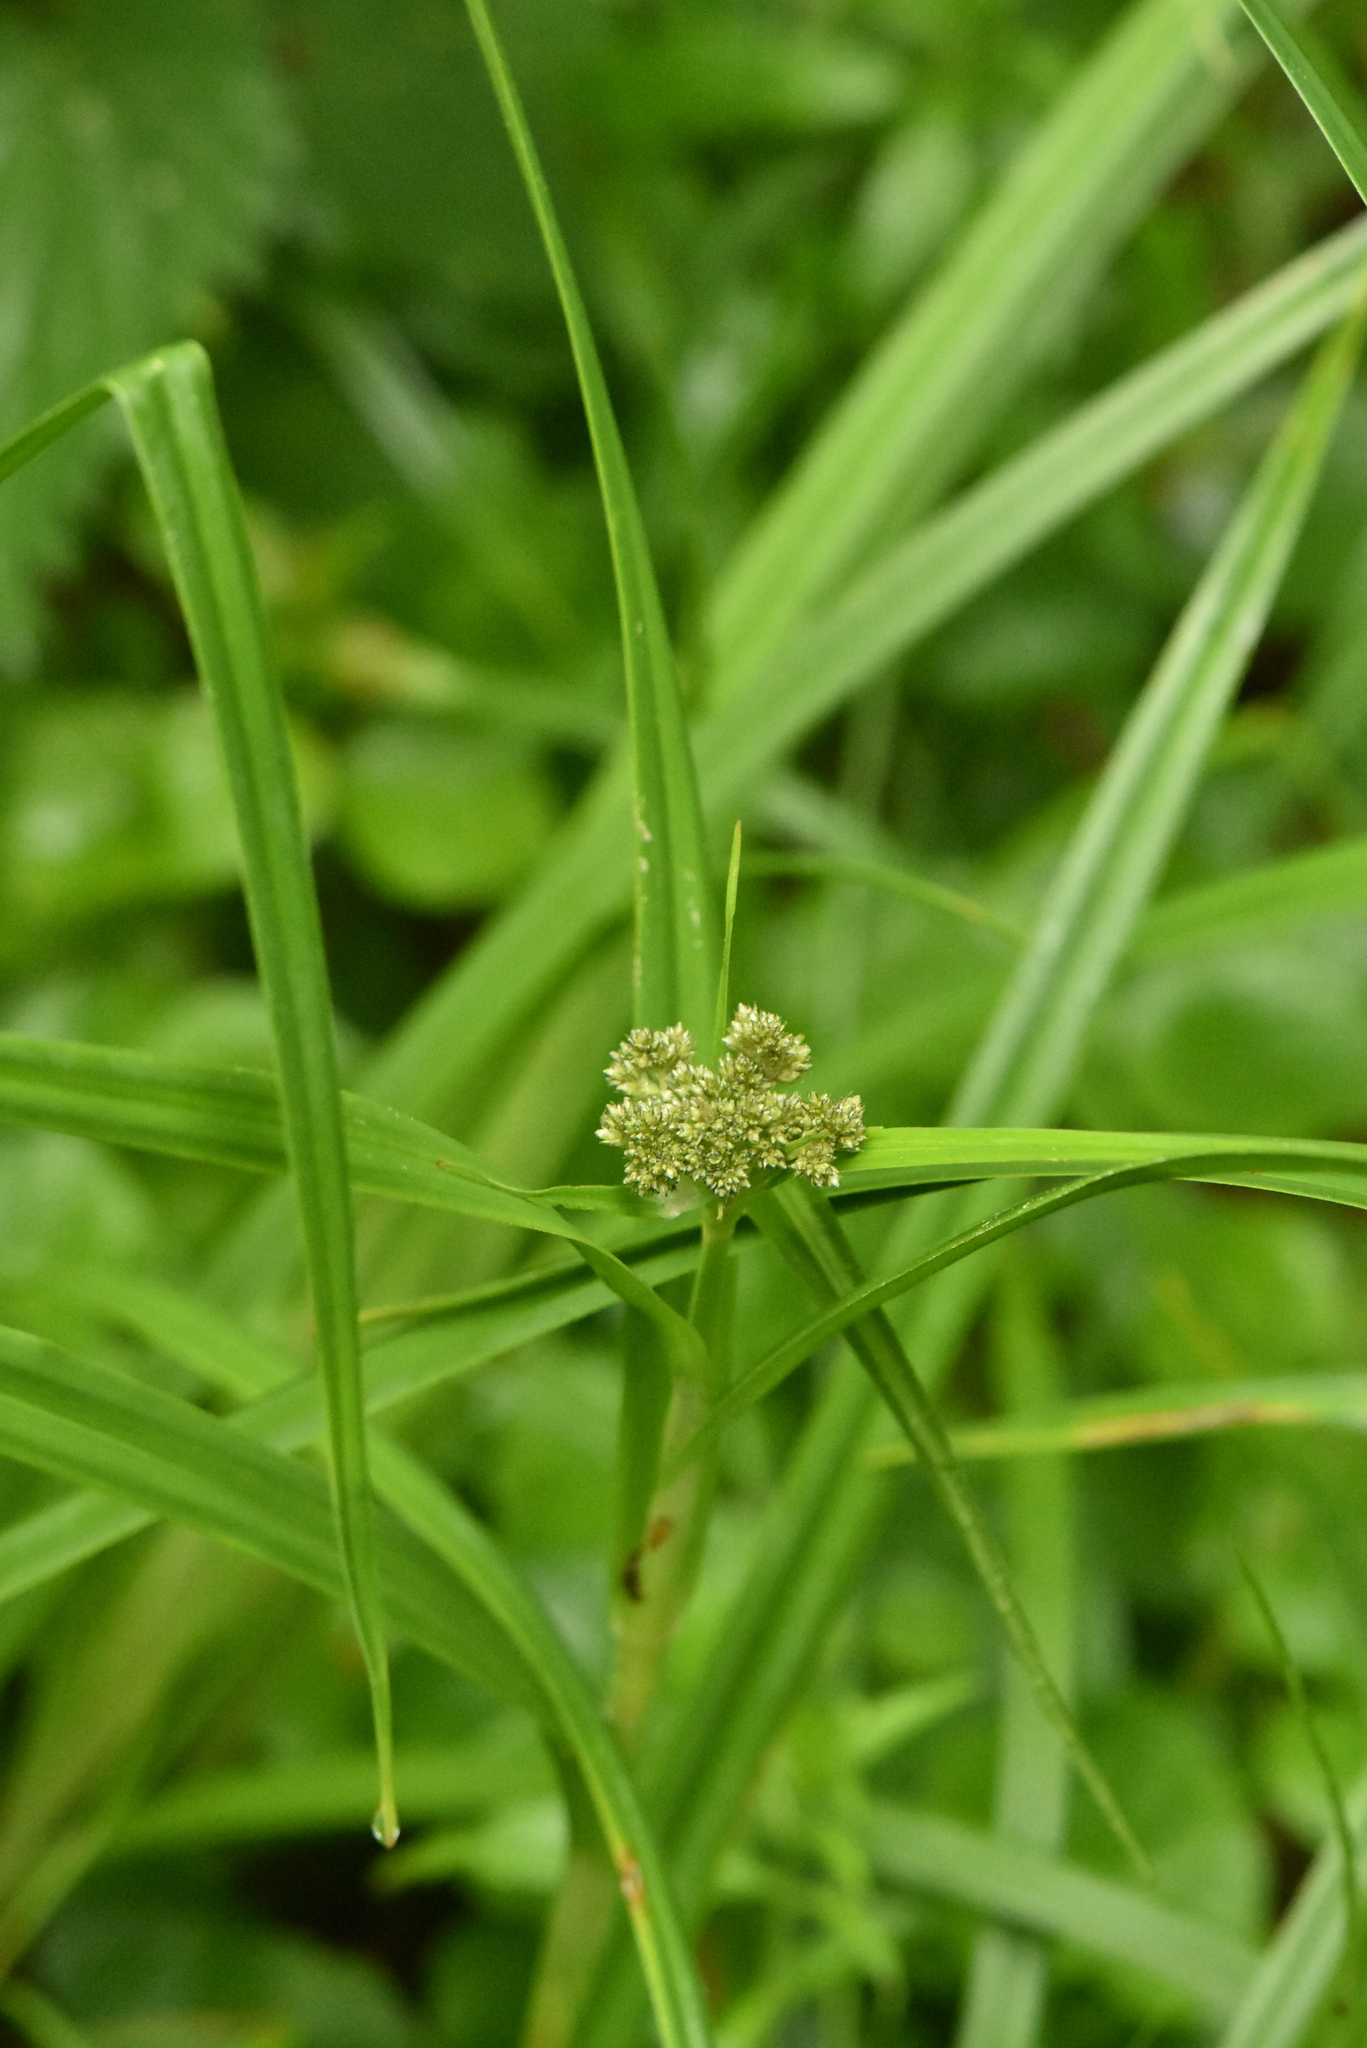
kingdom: Plantae
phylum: Tracheophyta
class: Liliopsida
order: Poales
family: Cyperaceae
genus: Scirpus
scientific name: Scirpus sylvaticus
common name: Wood club-rush
